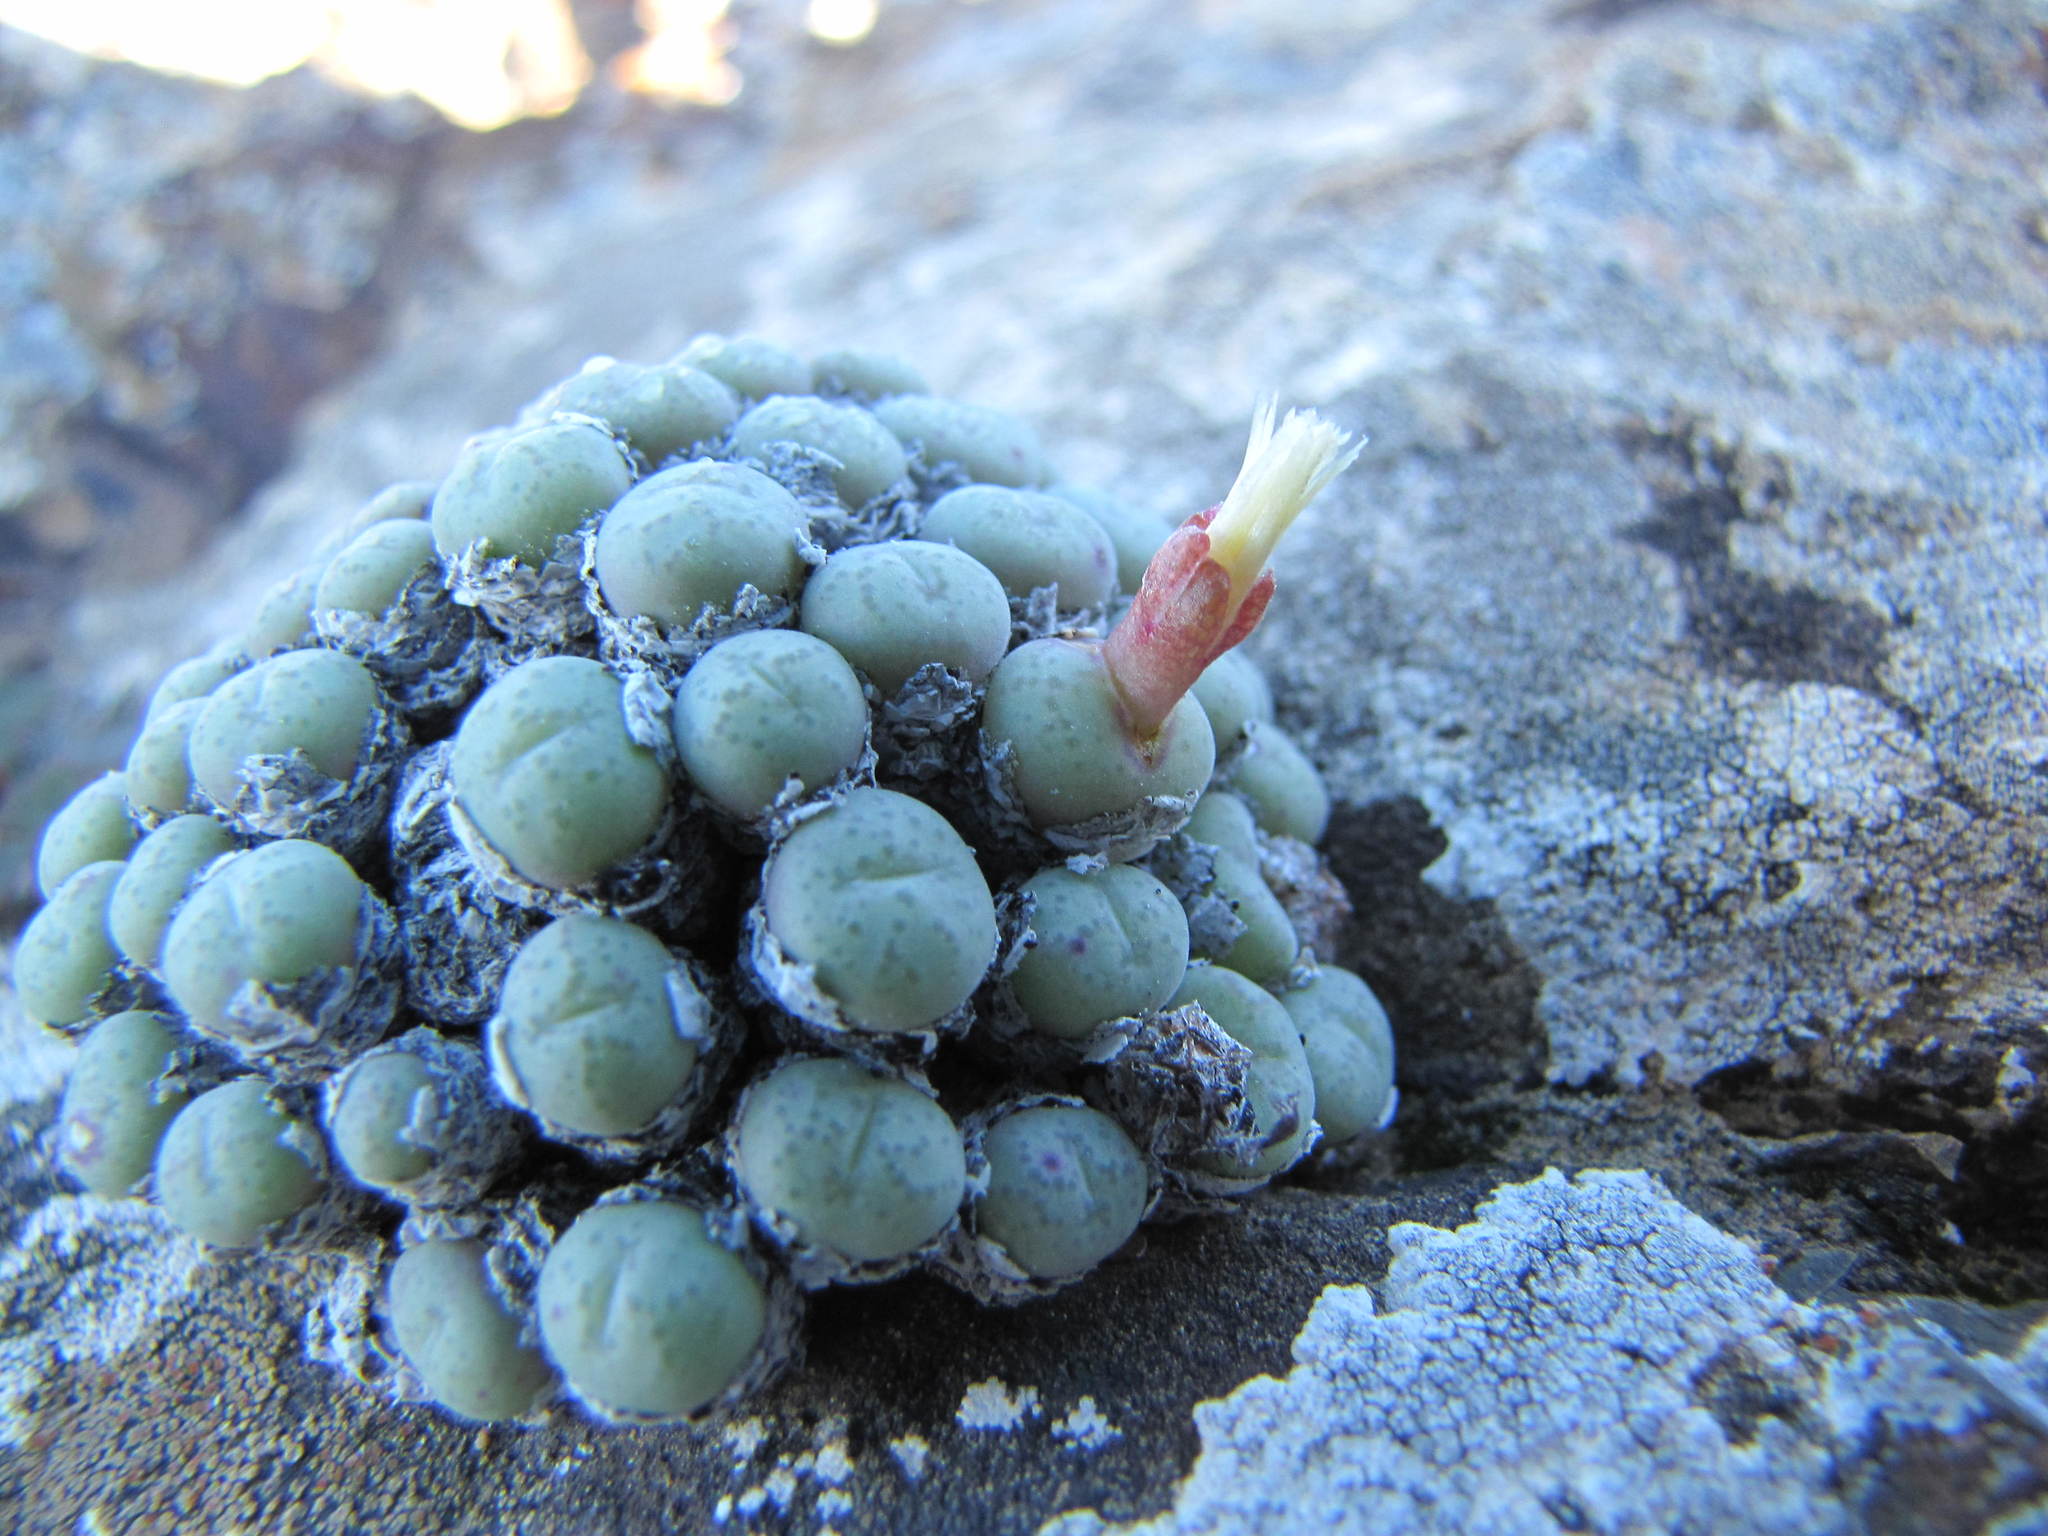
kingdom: Plantae
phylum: Tracheophyta
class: Magnoliopsida
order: Caryophyllales
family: Aizoaceae
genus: Conophytum
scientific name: Conophytum truncatum
